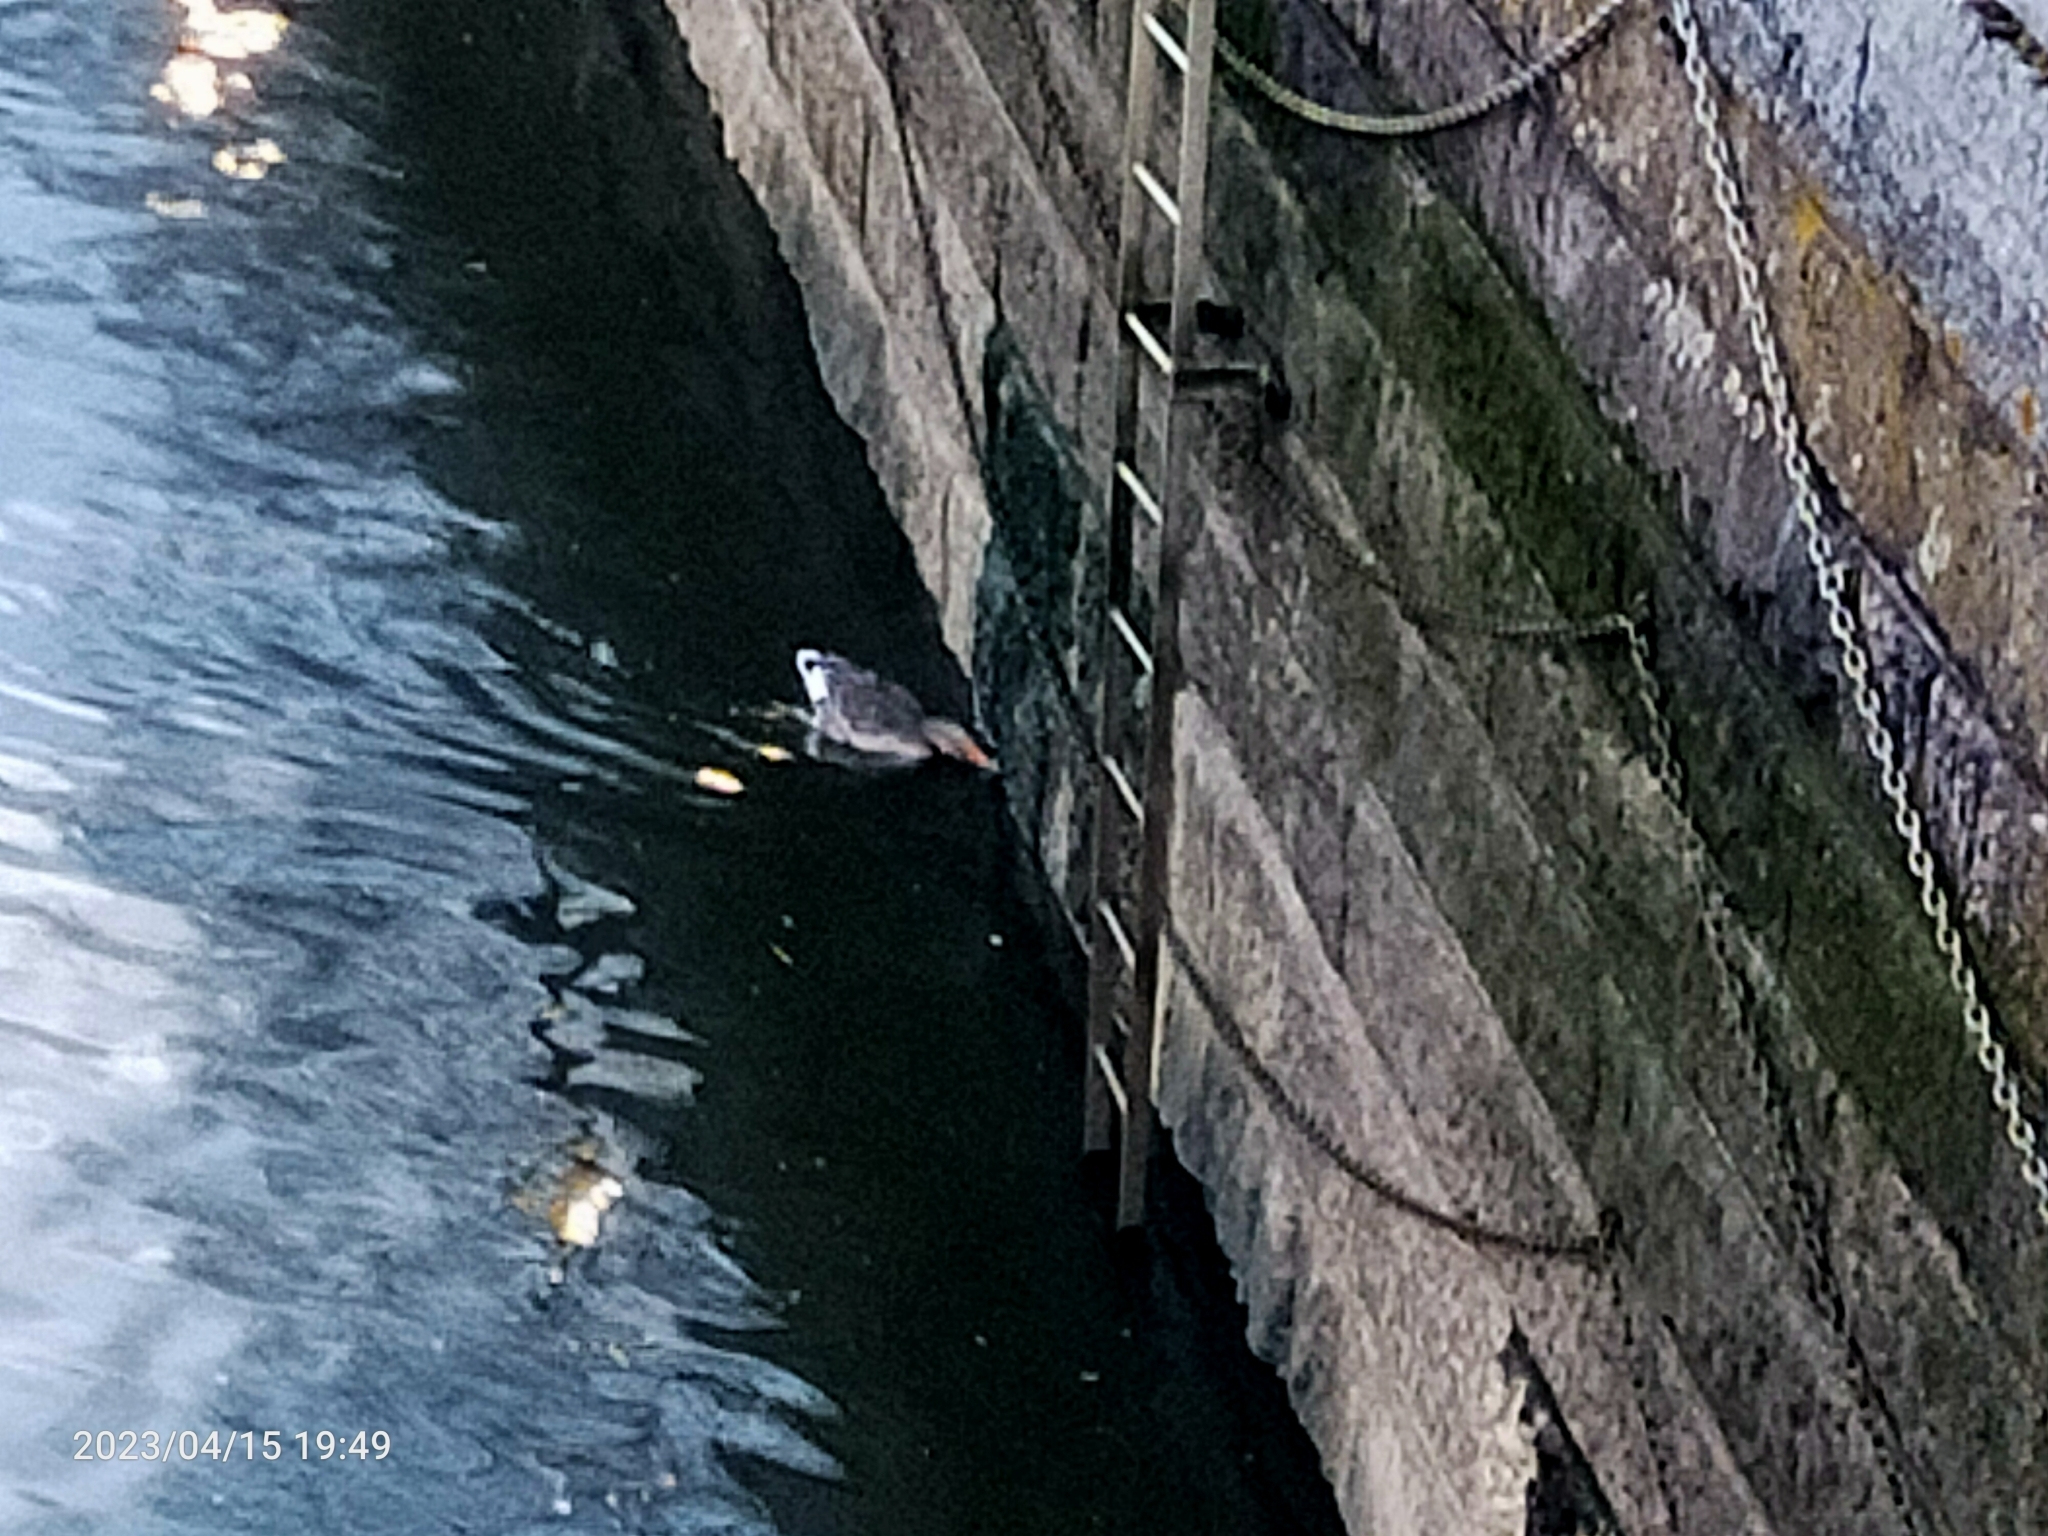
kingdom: Animalia
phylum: Chordata
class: Aves
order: Anseriformes
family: Anatidae
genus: Anser
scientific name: Anser anser
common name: Greylag goose
